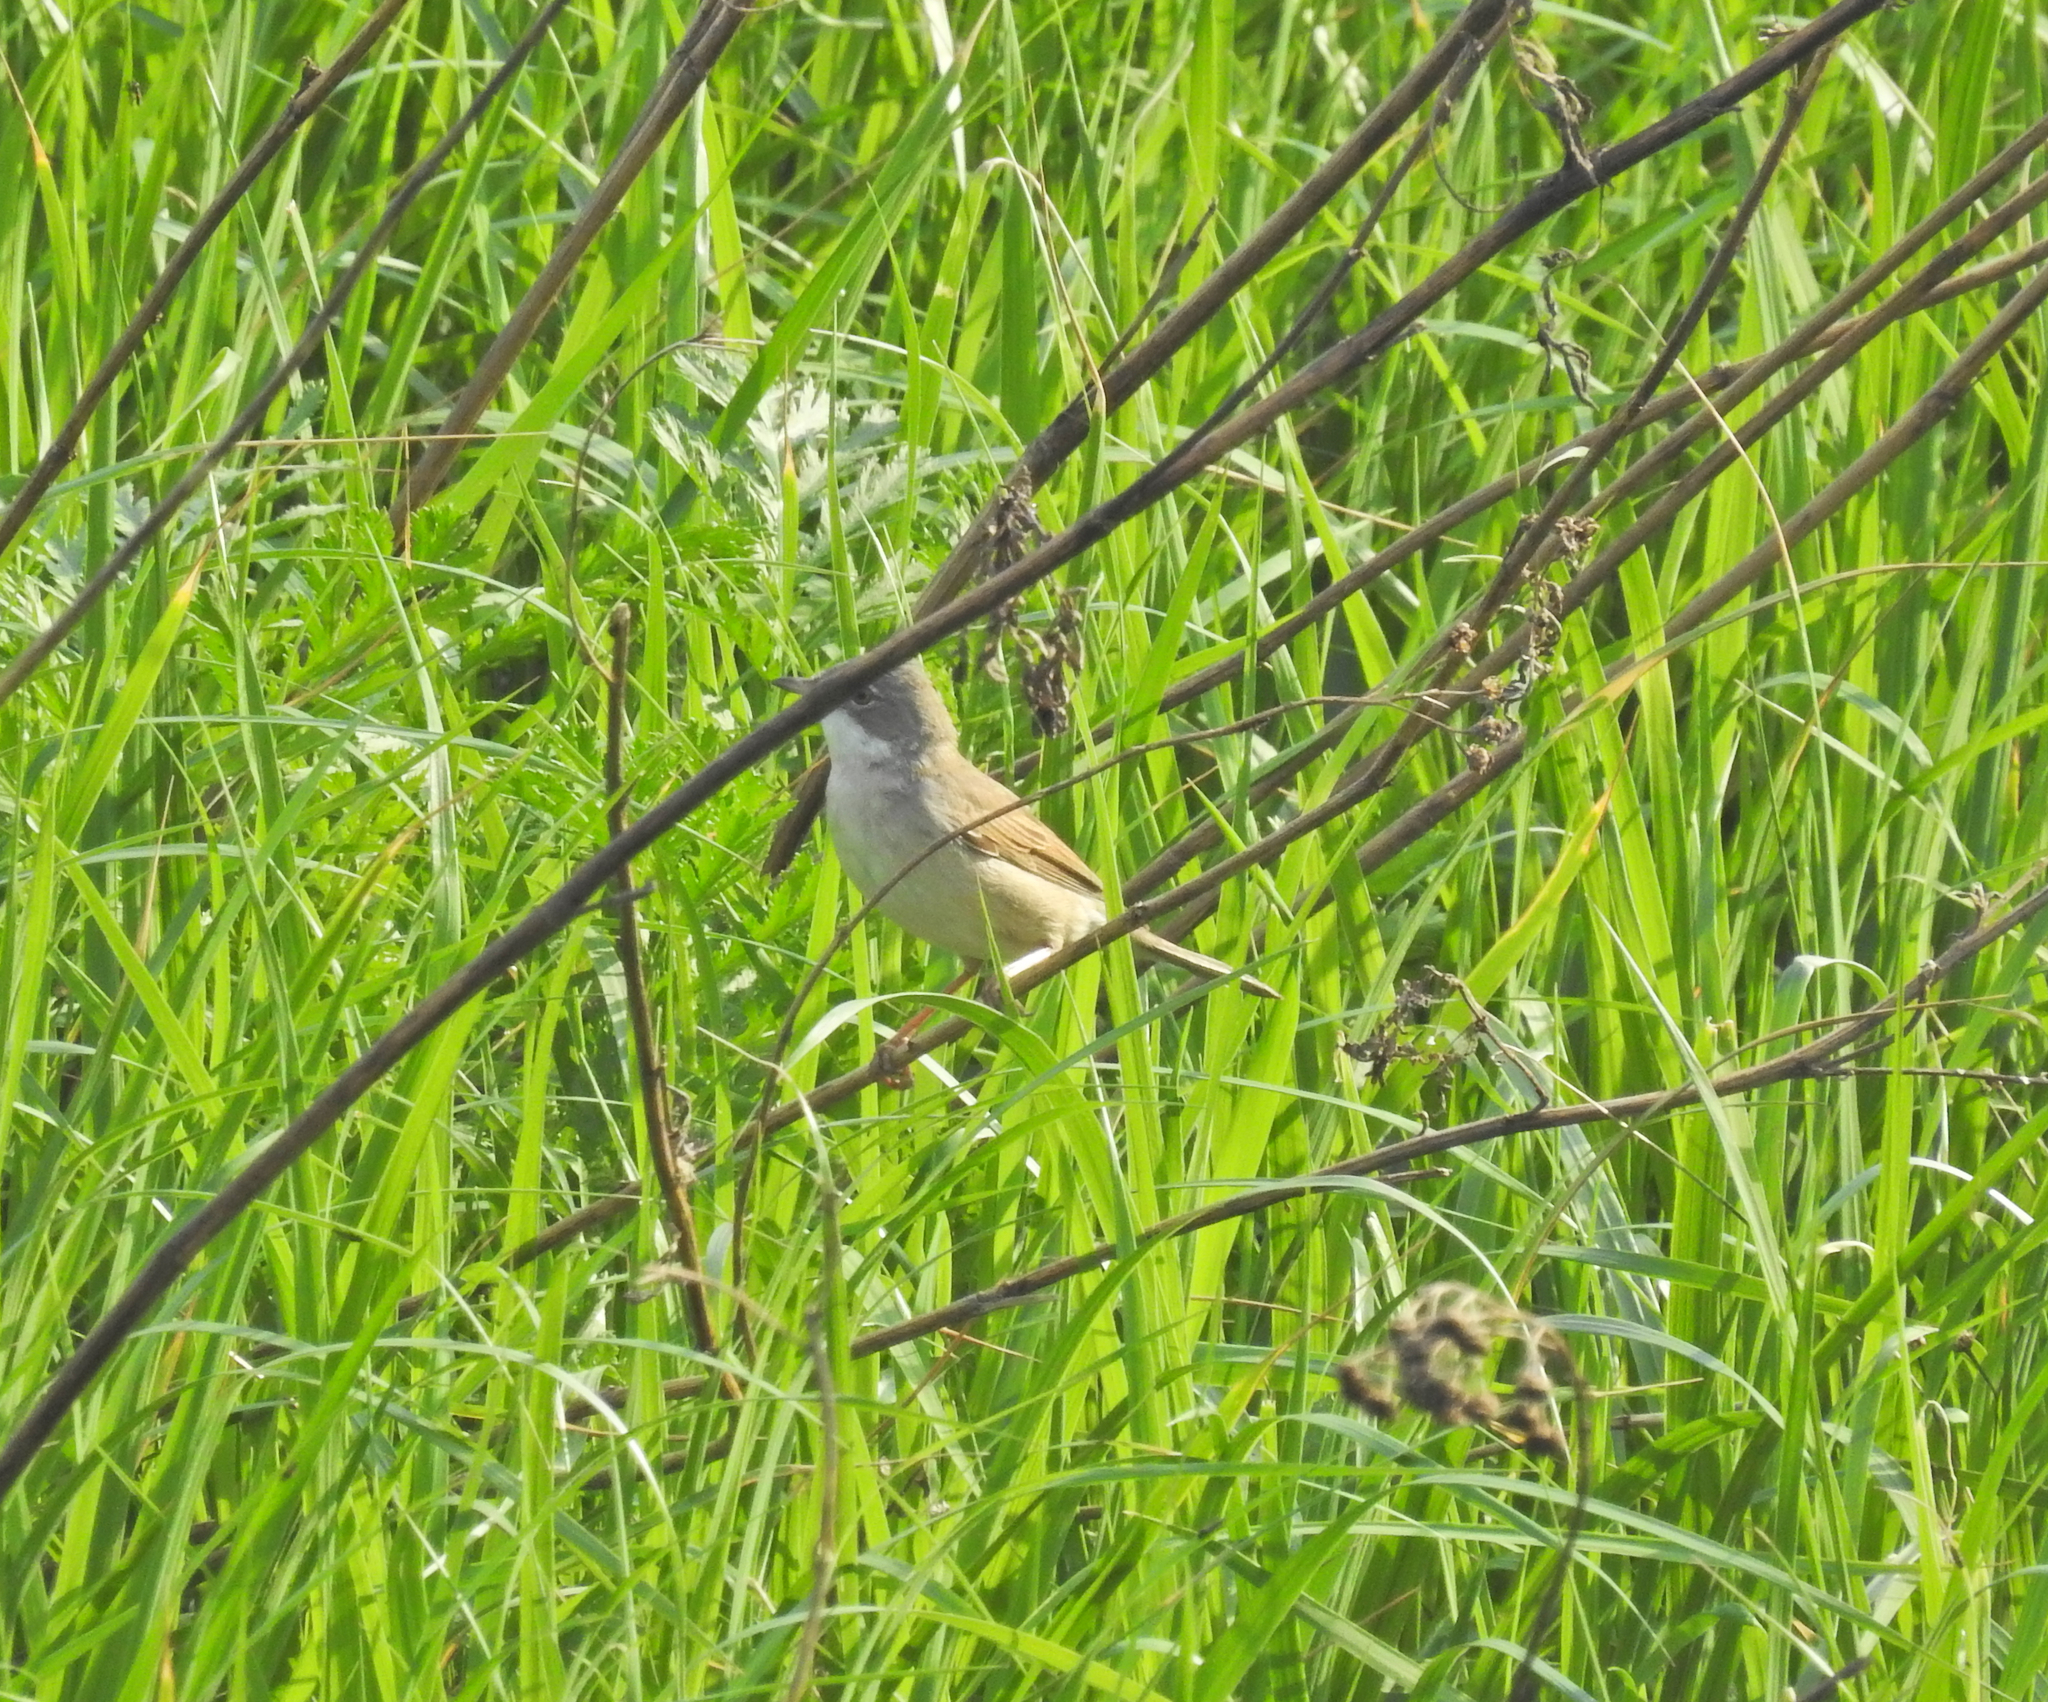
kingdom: Animalia
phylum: Chordata
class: Aves
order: Passeriformes
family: Sylviidae
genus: Sylvia
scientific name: Sylvia communis
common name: Common whitethroat
